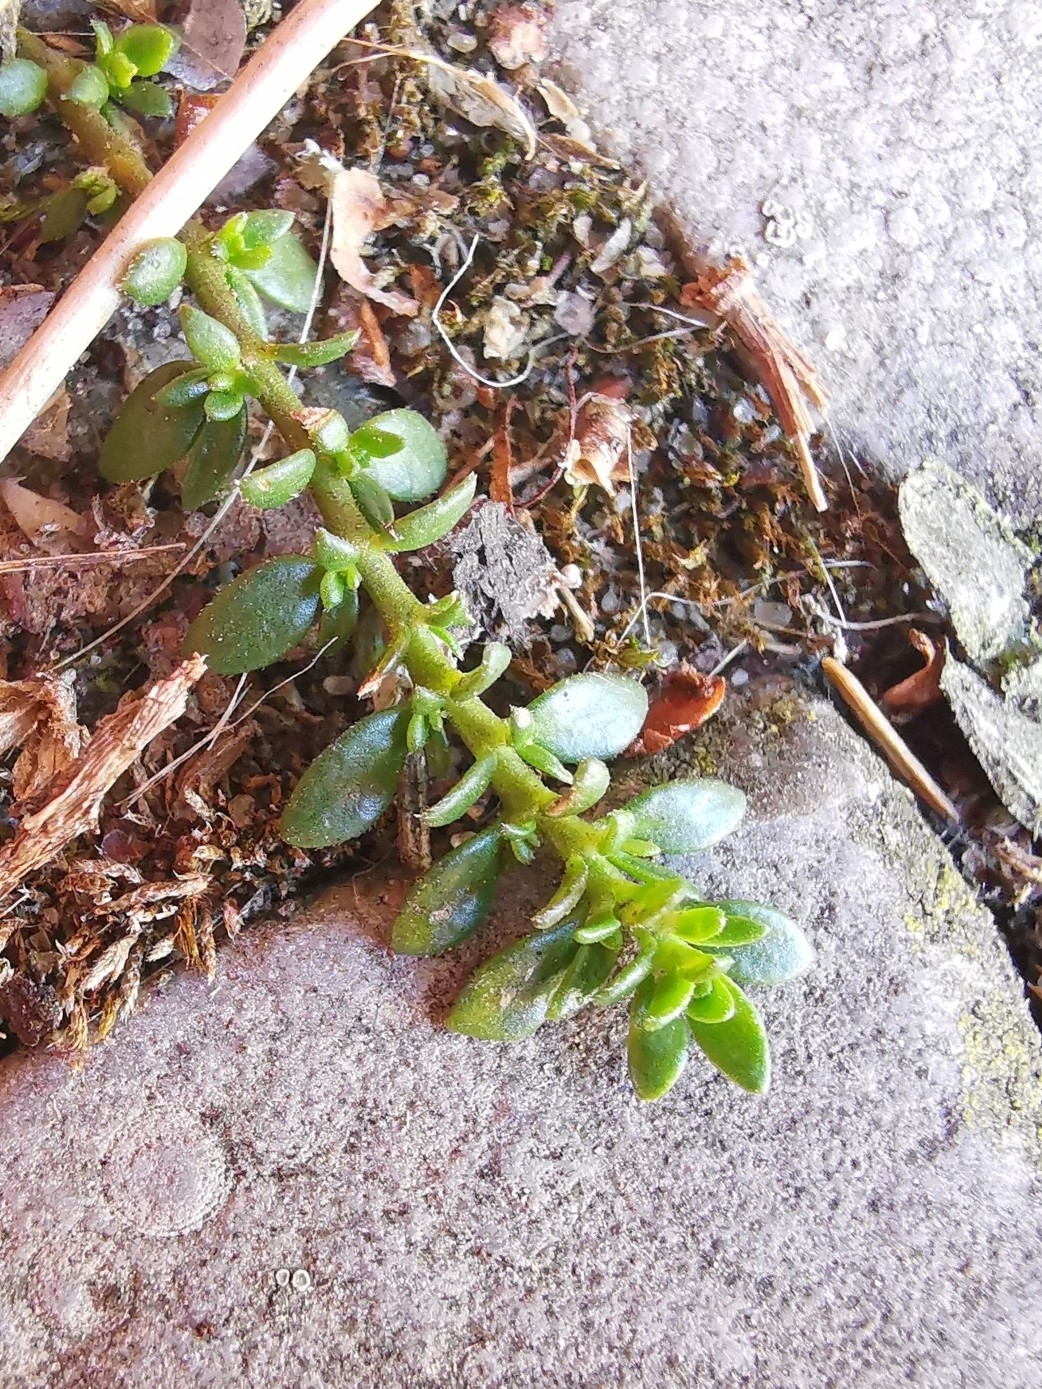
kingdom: Plantae
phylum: Tracheophyta
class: Magnoliopsida
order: Caryophyllales
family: Caryophyllaceae
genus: Herniaria
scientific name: Herniaria glabra
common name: Smooth rupturewort
